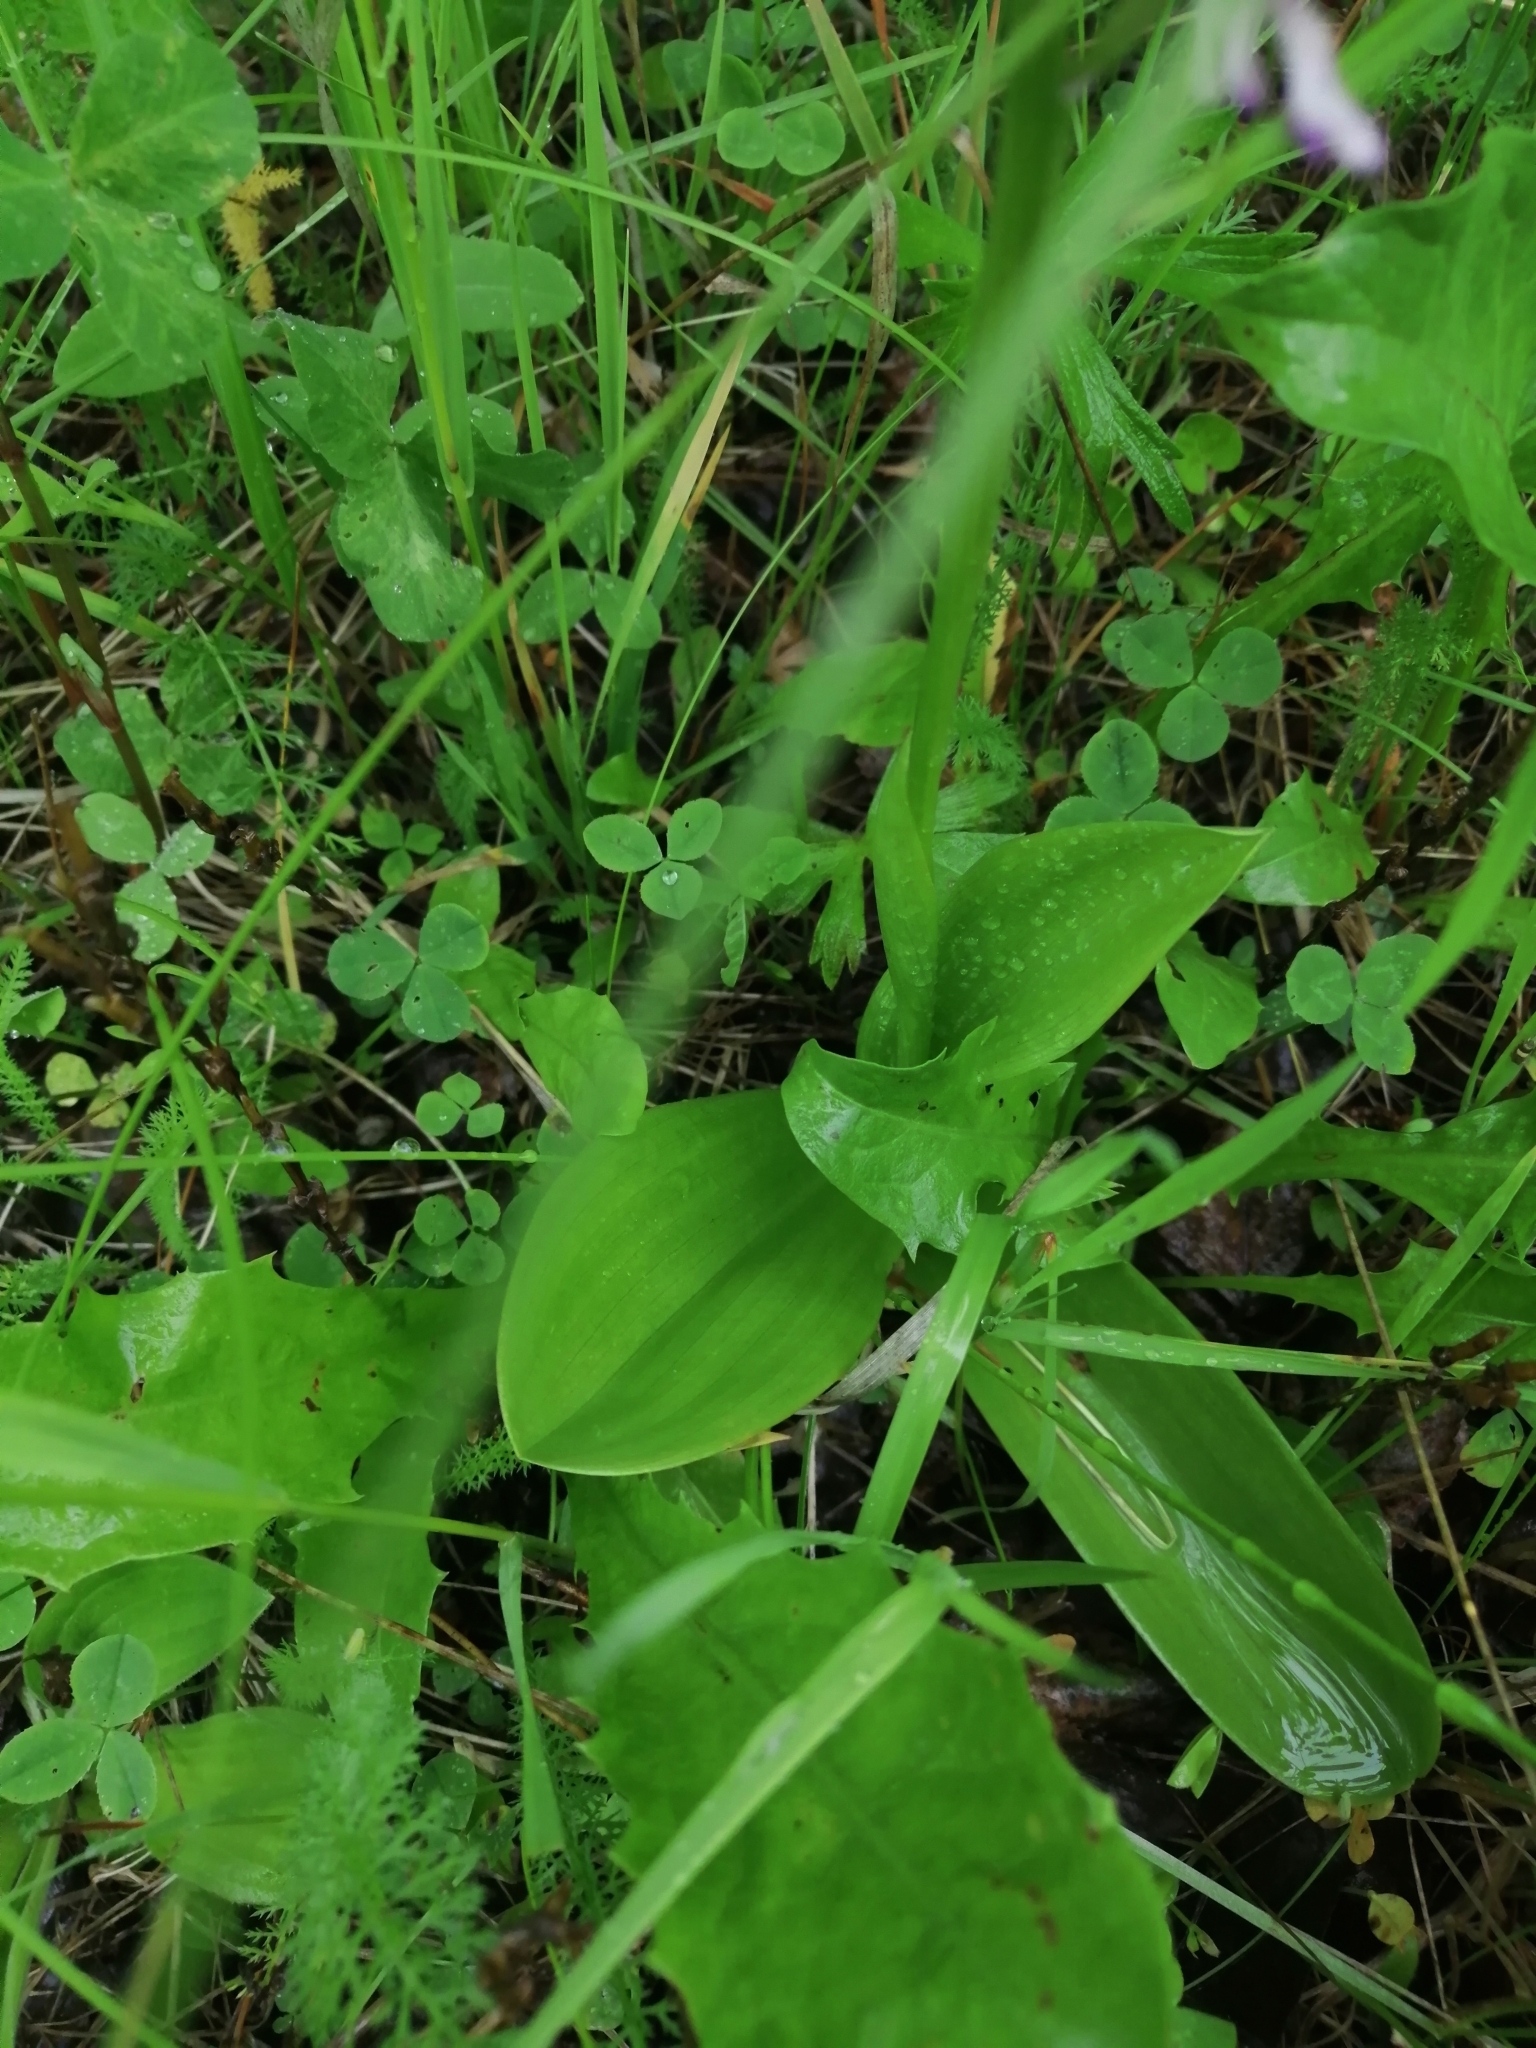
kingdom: Plantae
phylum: Tracheophyta
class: Liliopsida
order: Asparagales
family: Orchidaceae
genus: Orchis
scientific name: Orchis militaris
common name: Military orchid
